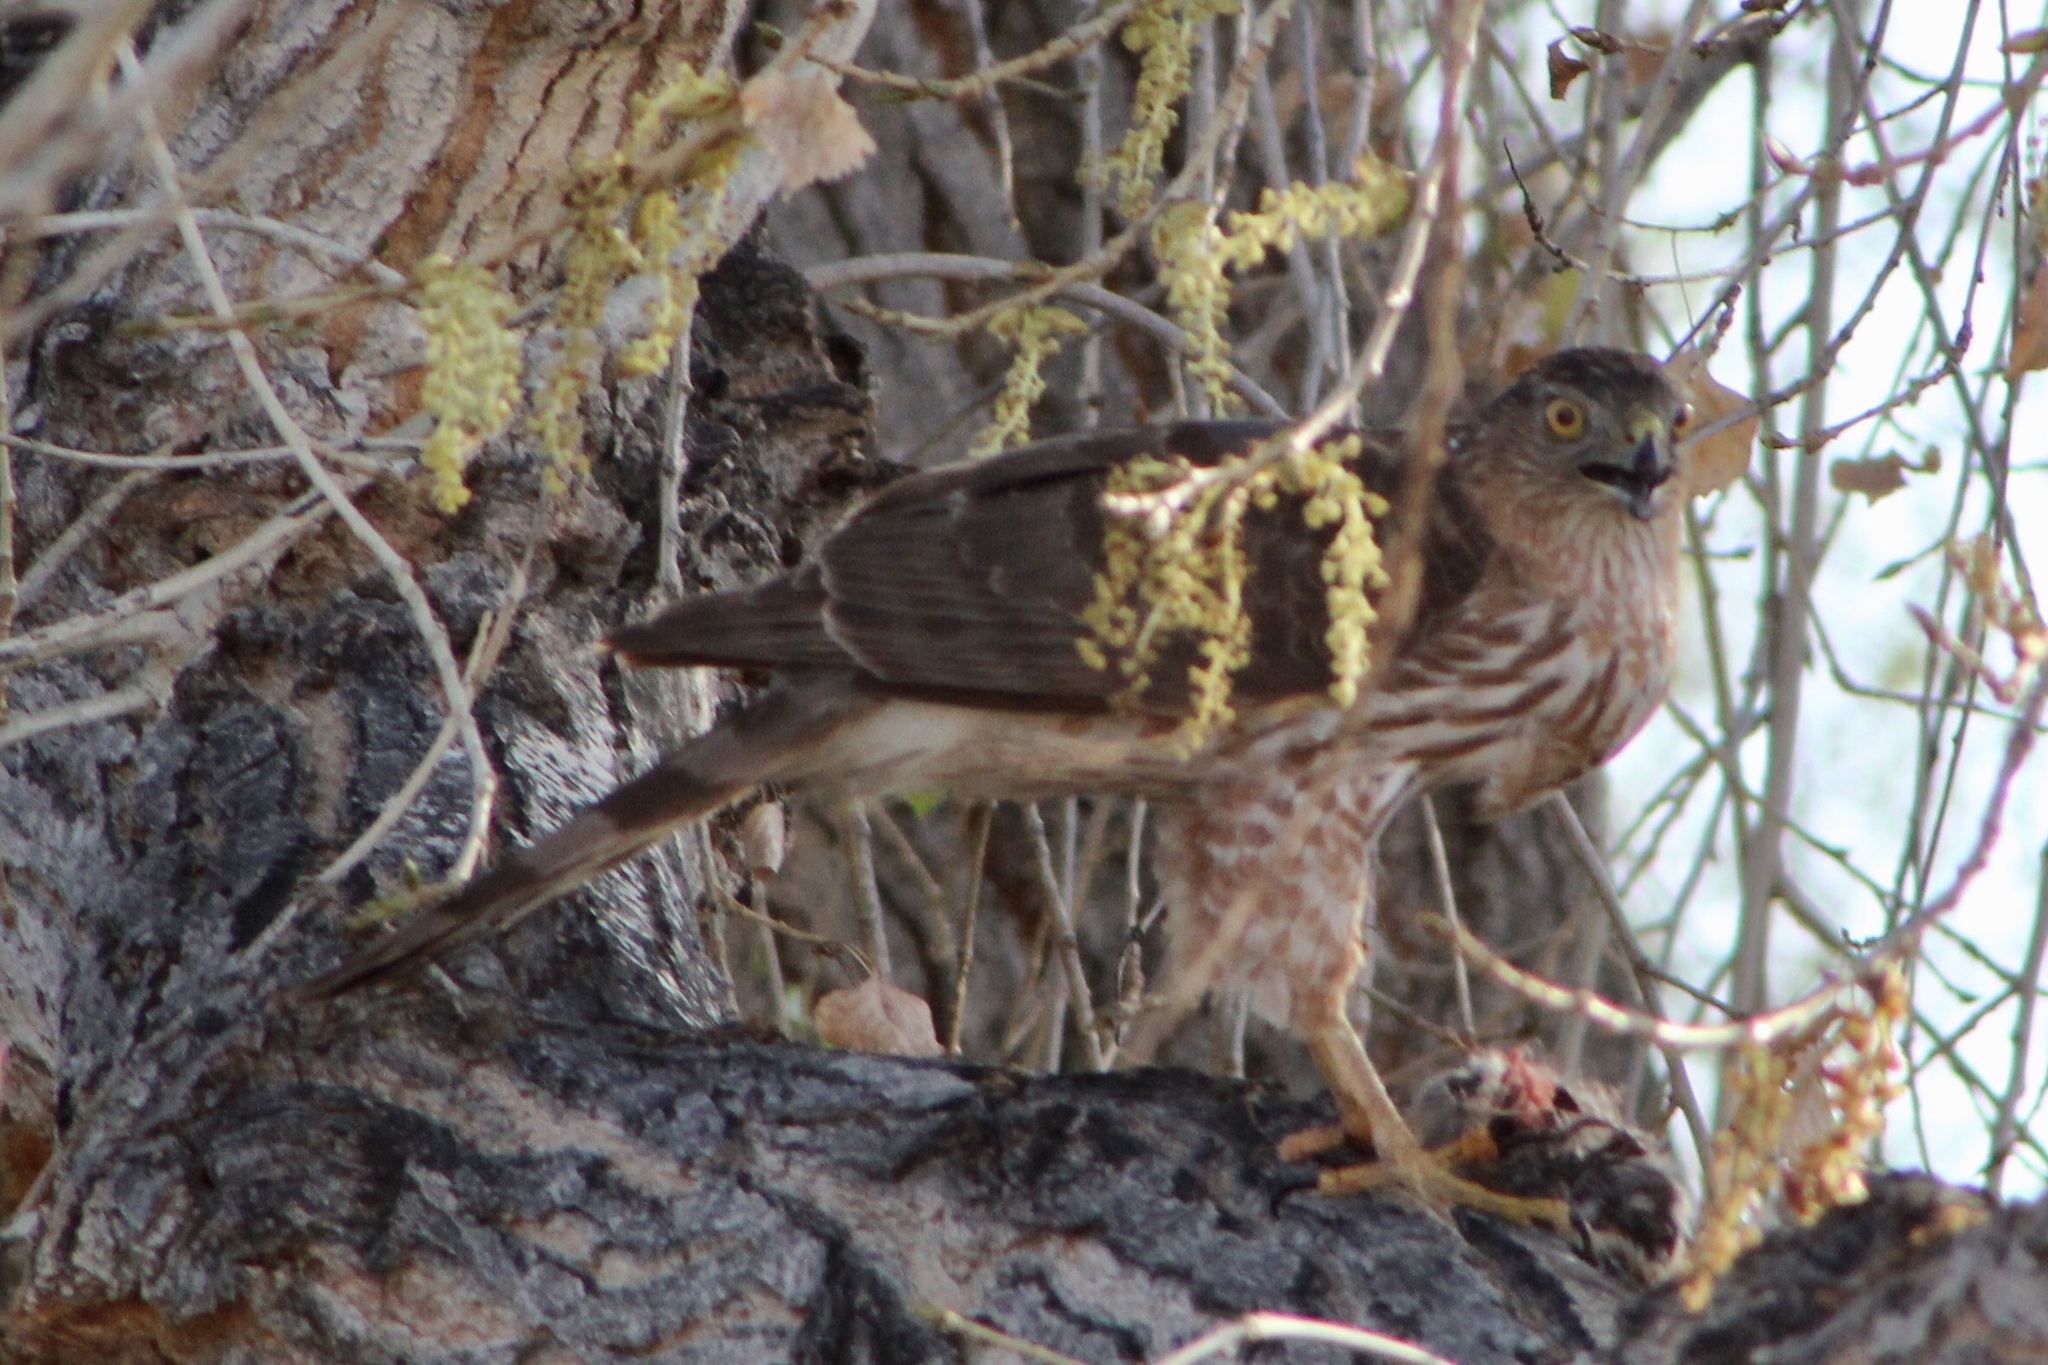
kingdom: Animalia
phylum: Chordata
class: Aves
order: Accipitriformes
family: Accipitridae
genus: Accipiter
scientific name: Accipiter cooperii
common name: Cooper's hawk
